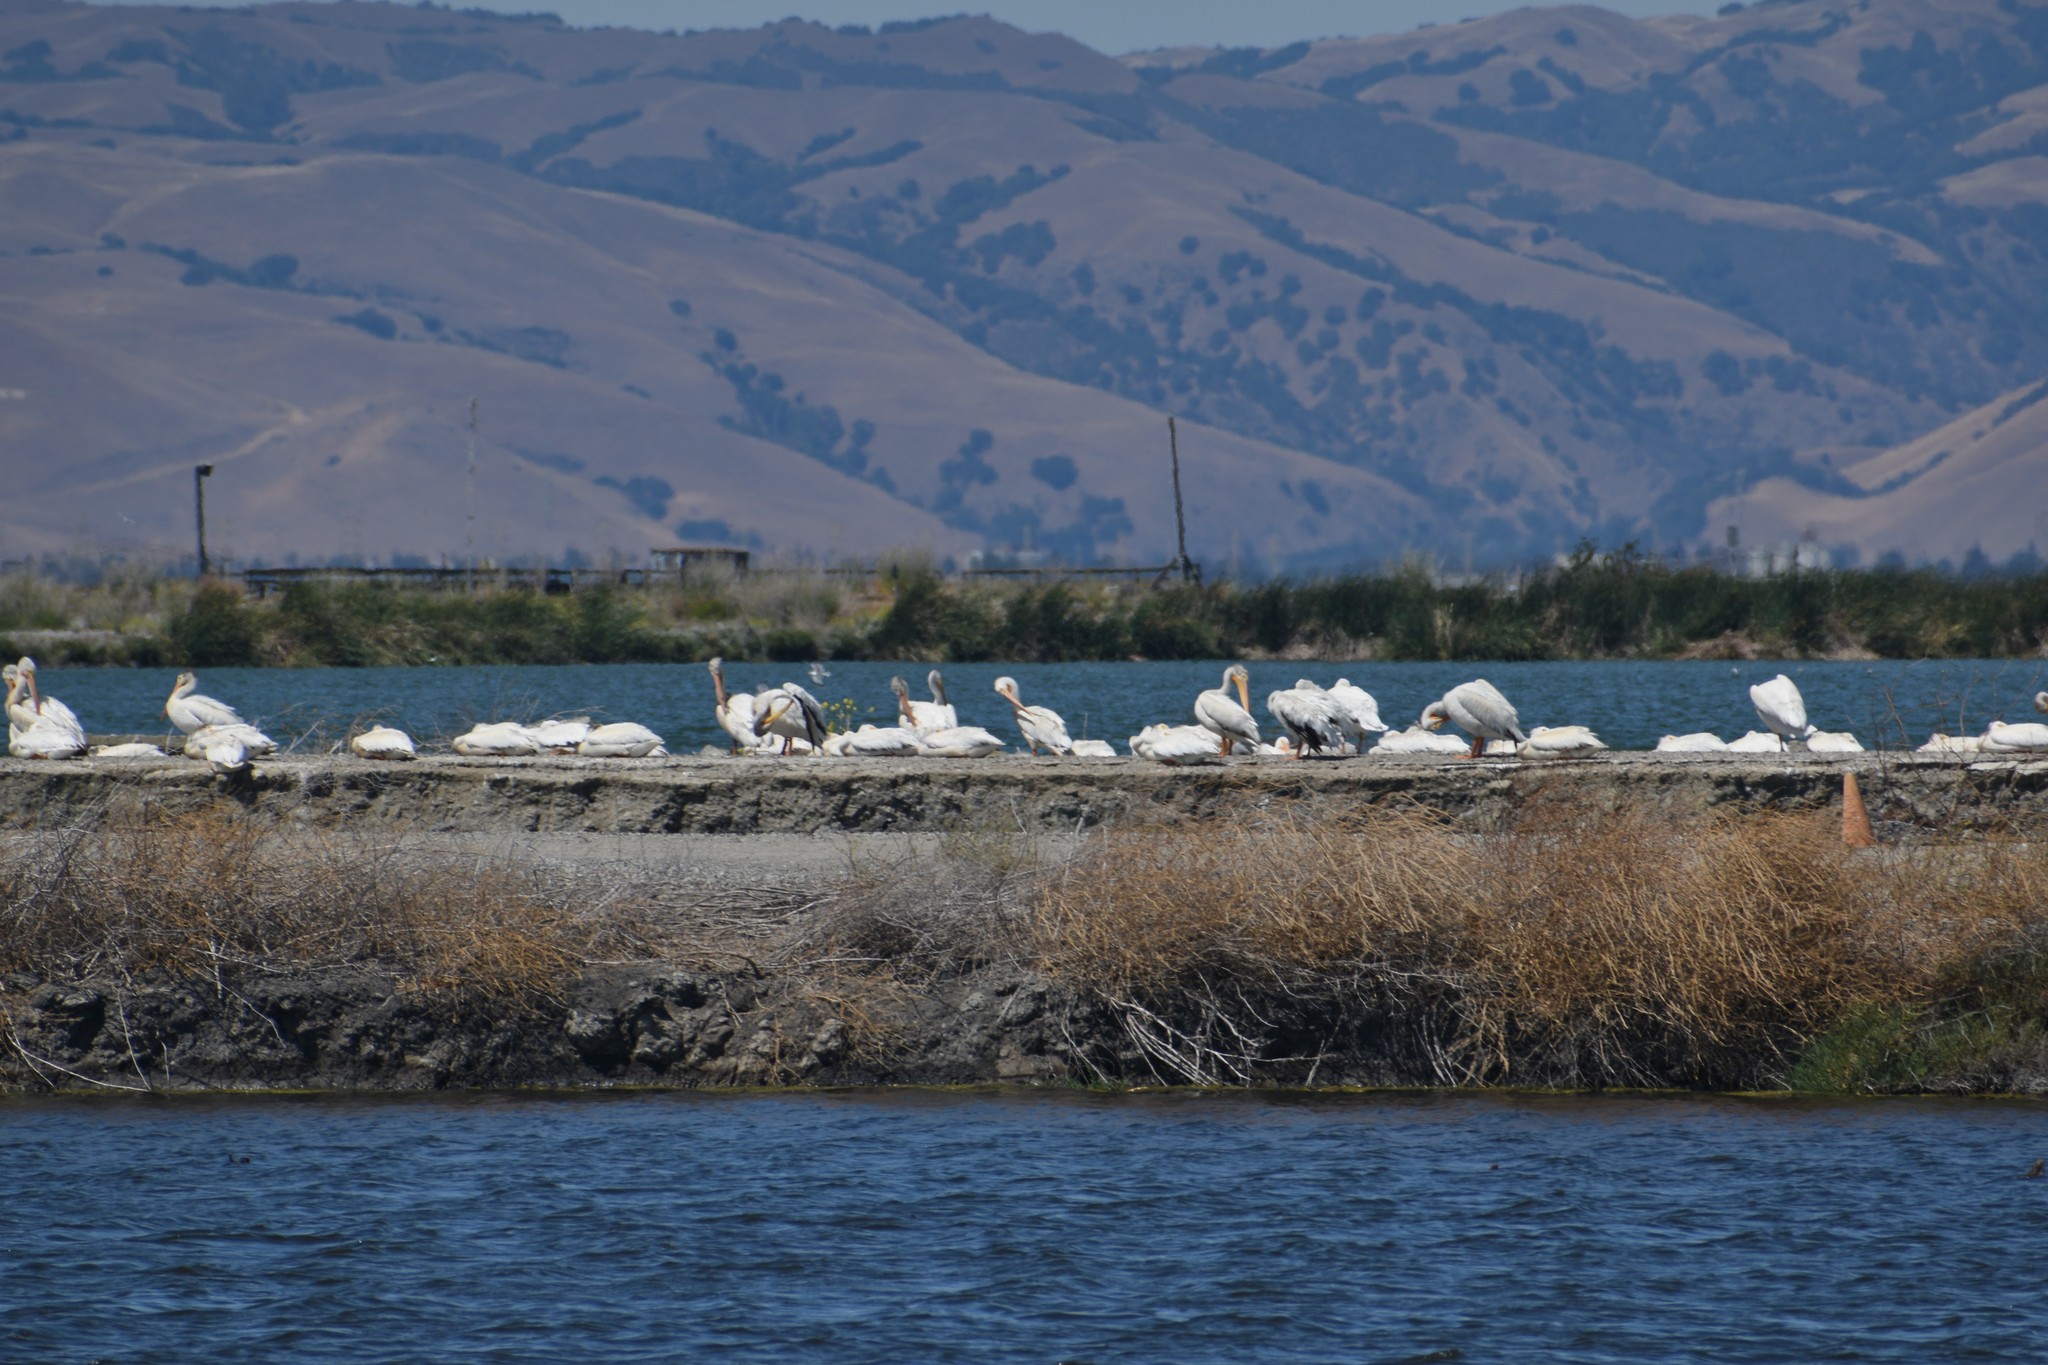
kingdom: Animalia
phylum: Chordata
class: Aves
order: Pelecaniformes
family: Pelecanidae
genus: Pelecanus
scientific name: Pelecanus erythrorhynchos
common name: American white pelican
